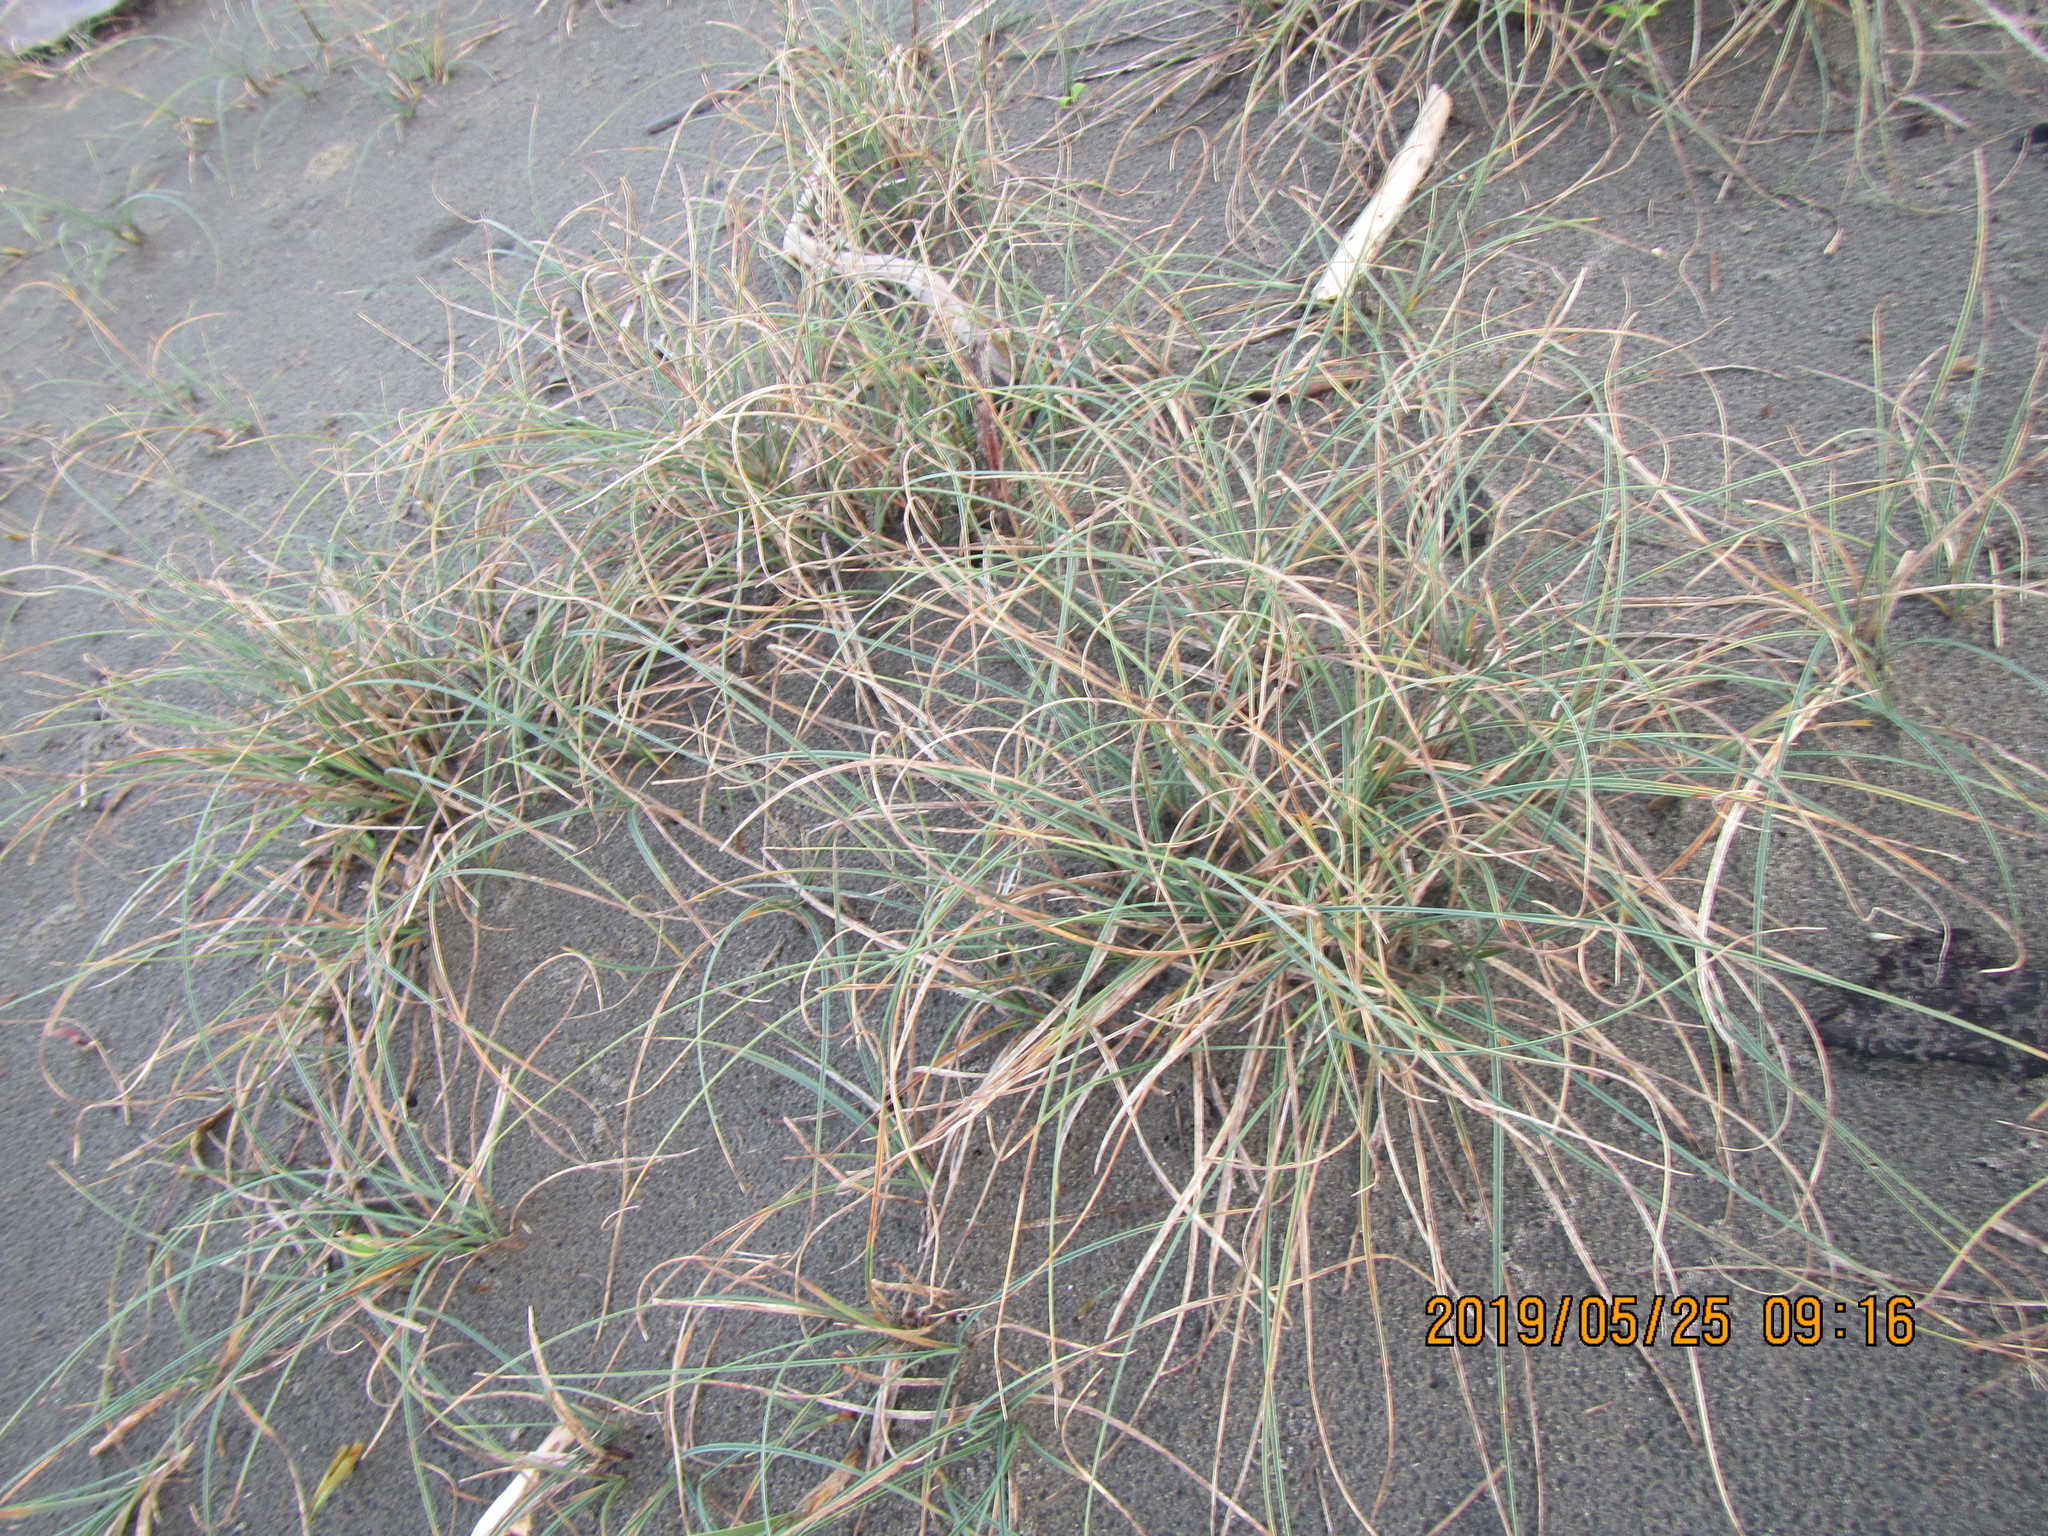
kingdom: Plantae
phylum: Tracheophyta
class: Liliopsida
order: Poales
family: Cyperaceae
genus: Carex
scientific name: Carex pumila
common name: Dwarf sedge
